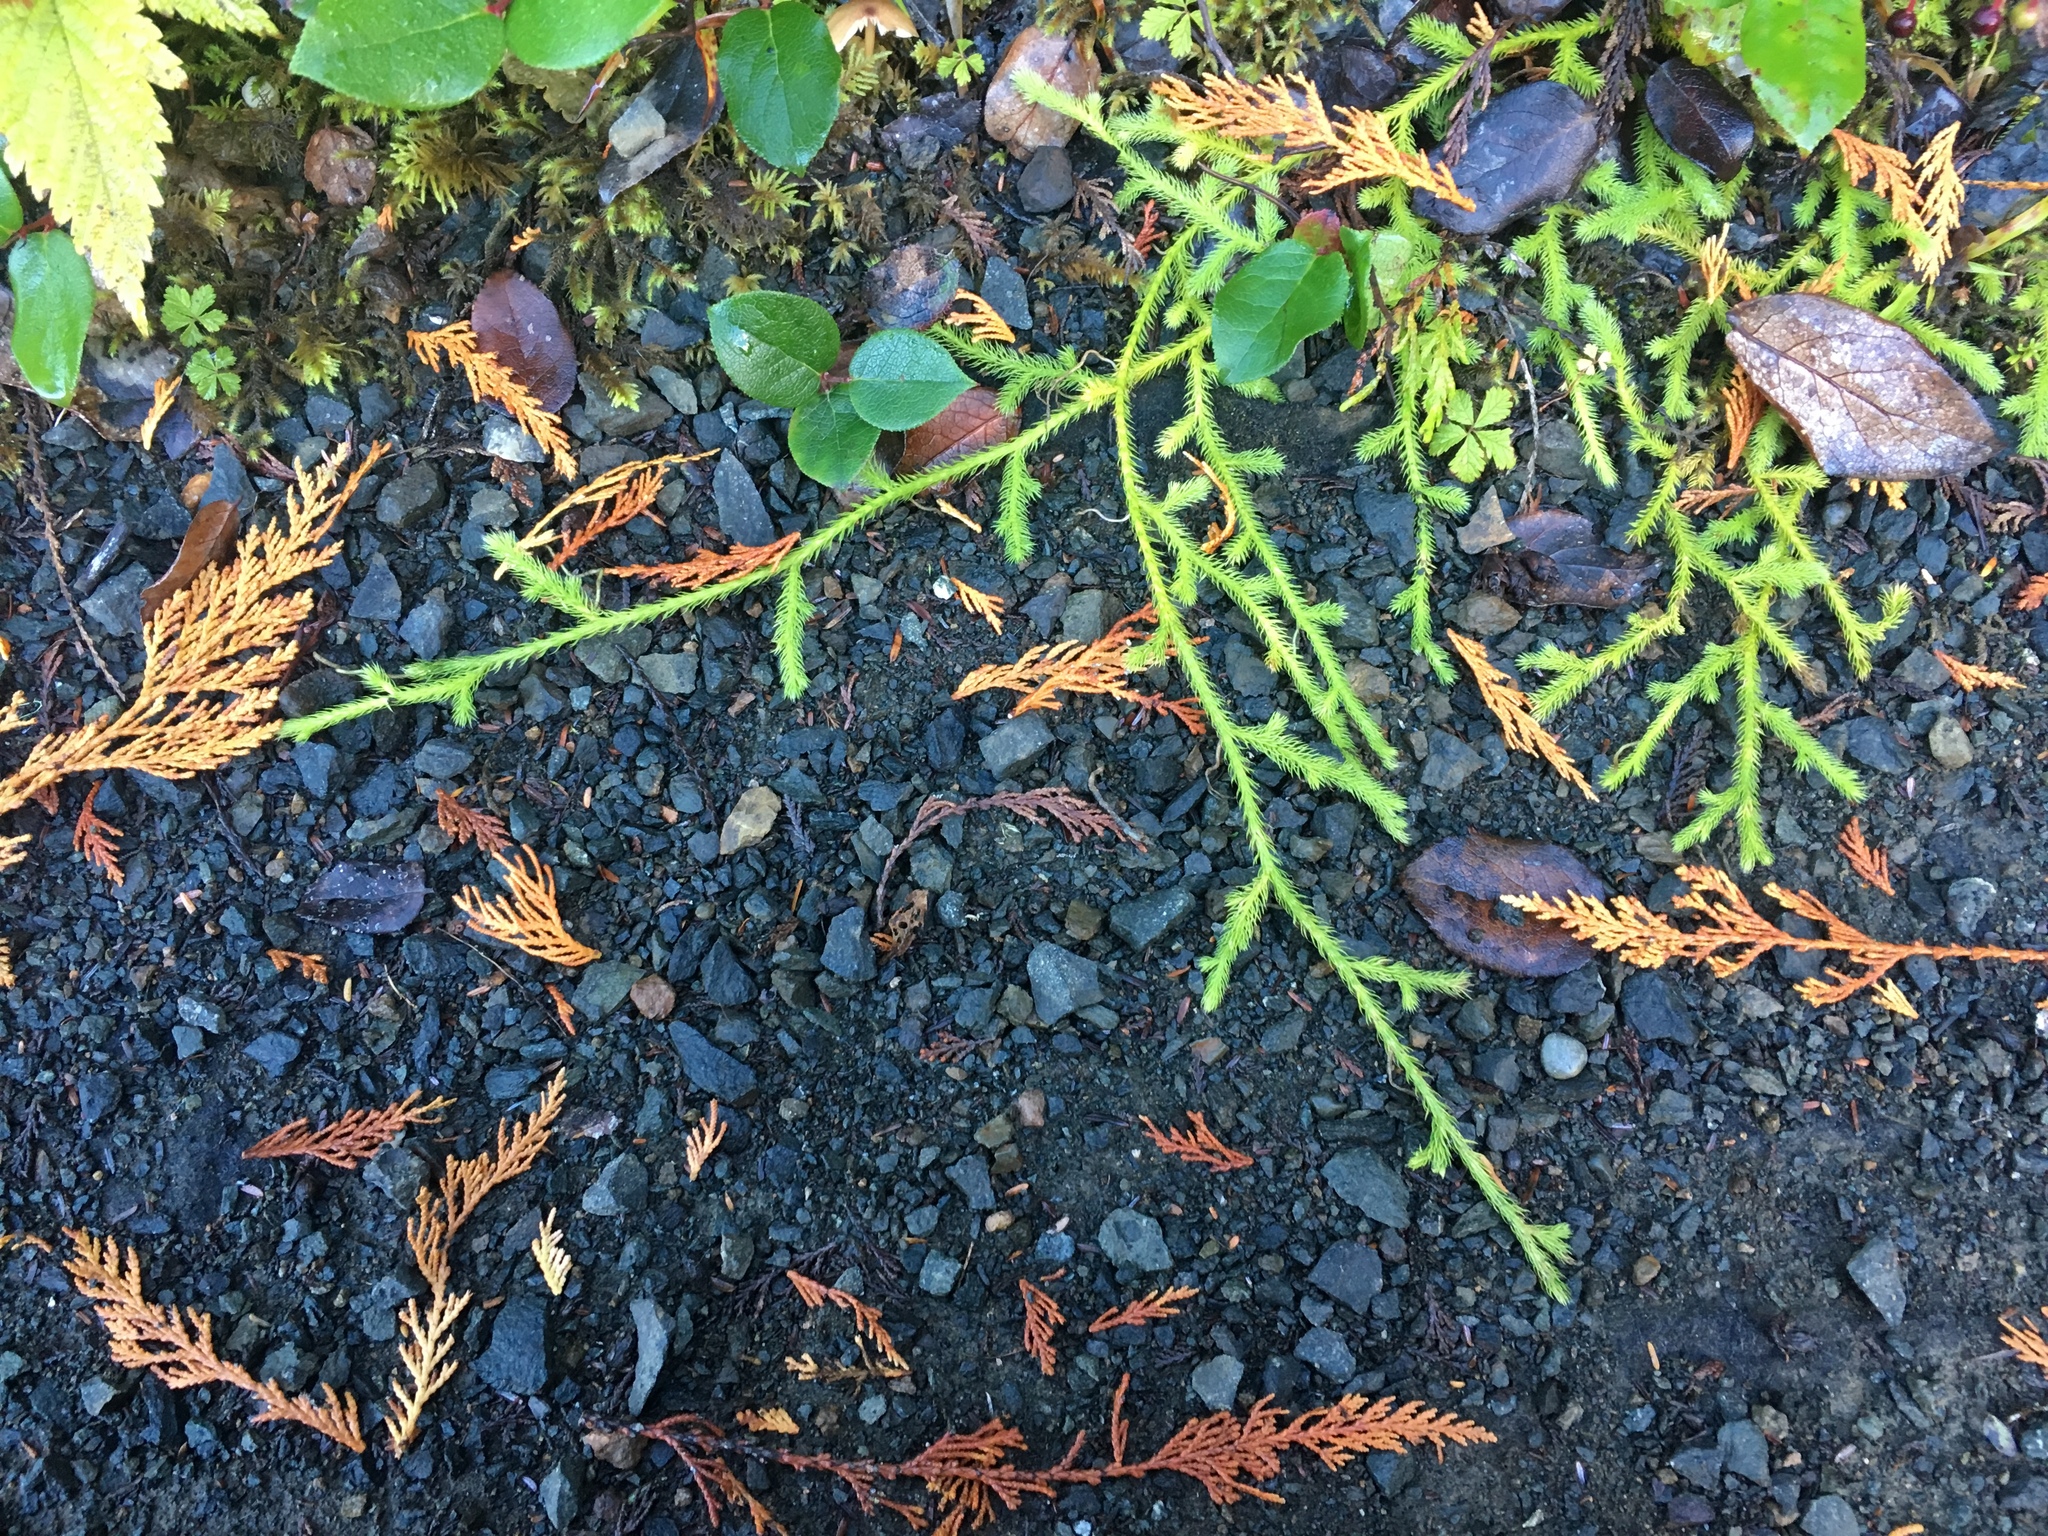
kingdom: Plantae
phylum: Tracheophyta
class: Lycopodiopsida
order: Lycopodiales
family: Lycopodiaceae
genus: Lycopodium
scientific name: Lycopodium clavatum
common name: Stag's-horn clubmoss
